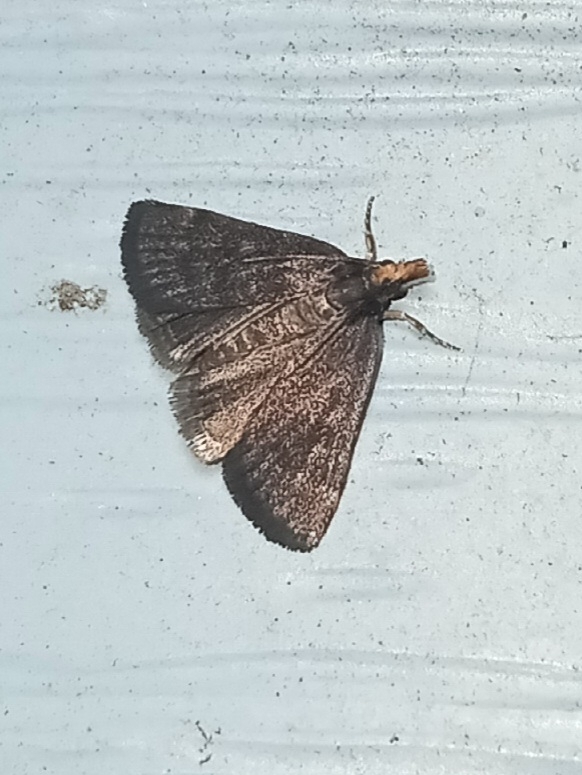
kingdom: Animalia
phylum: Arthropoda
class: Insecta
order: Lepidoptera
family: Crambidae
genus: Pyrausta
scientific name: Pyrausta merrickalis
